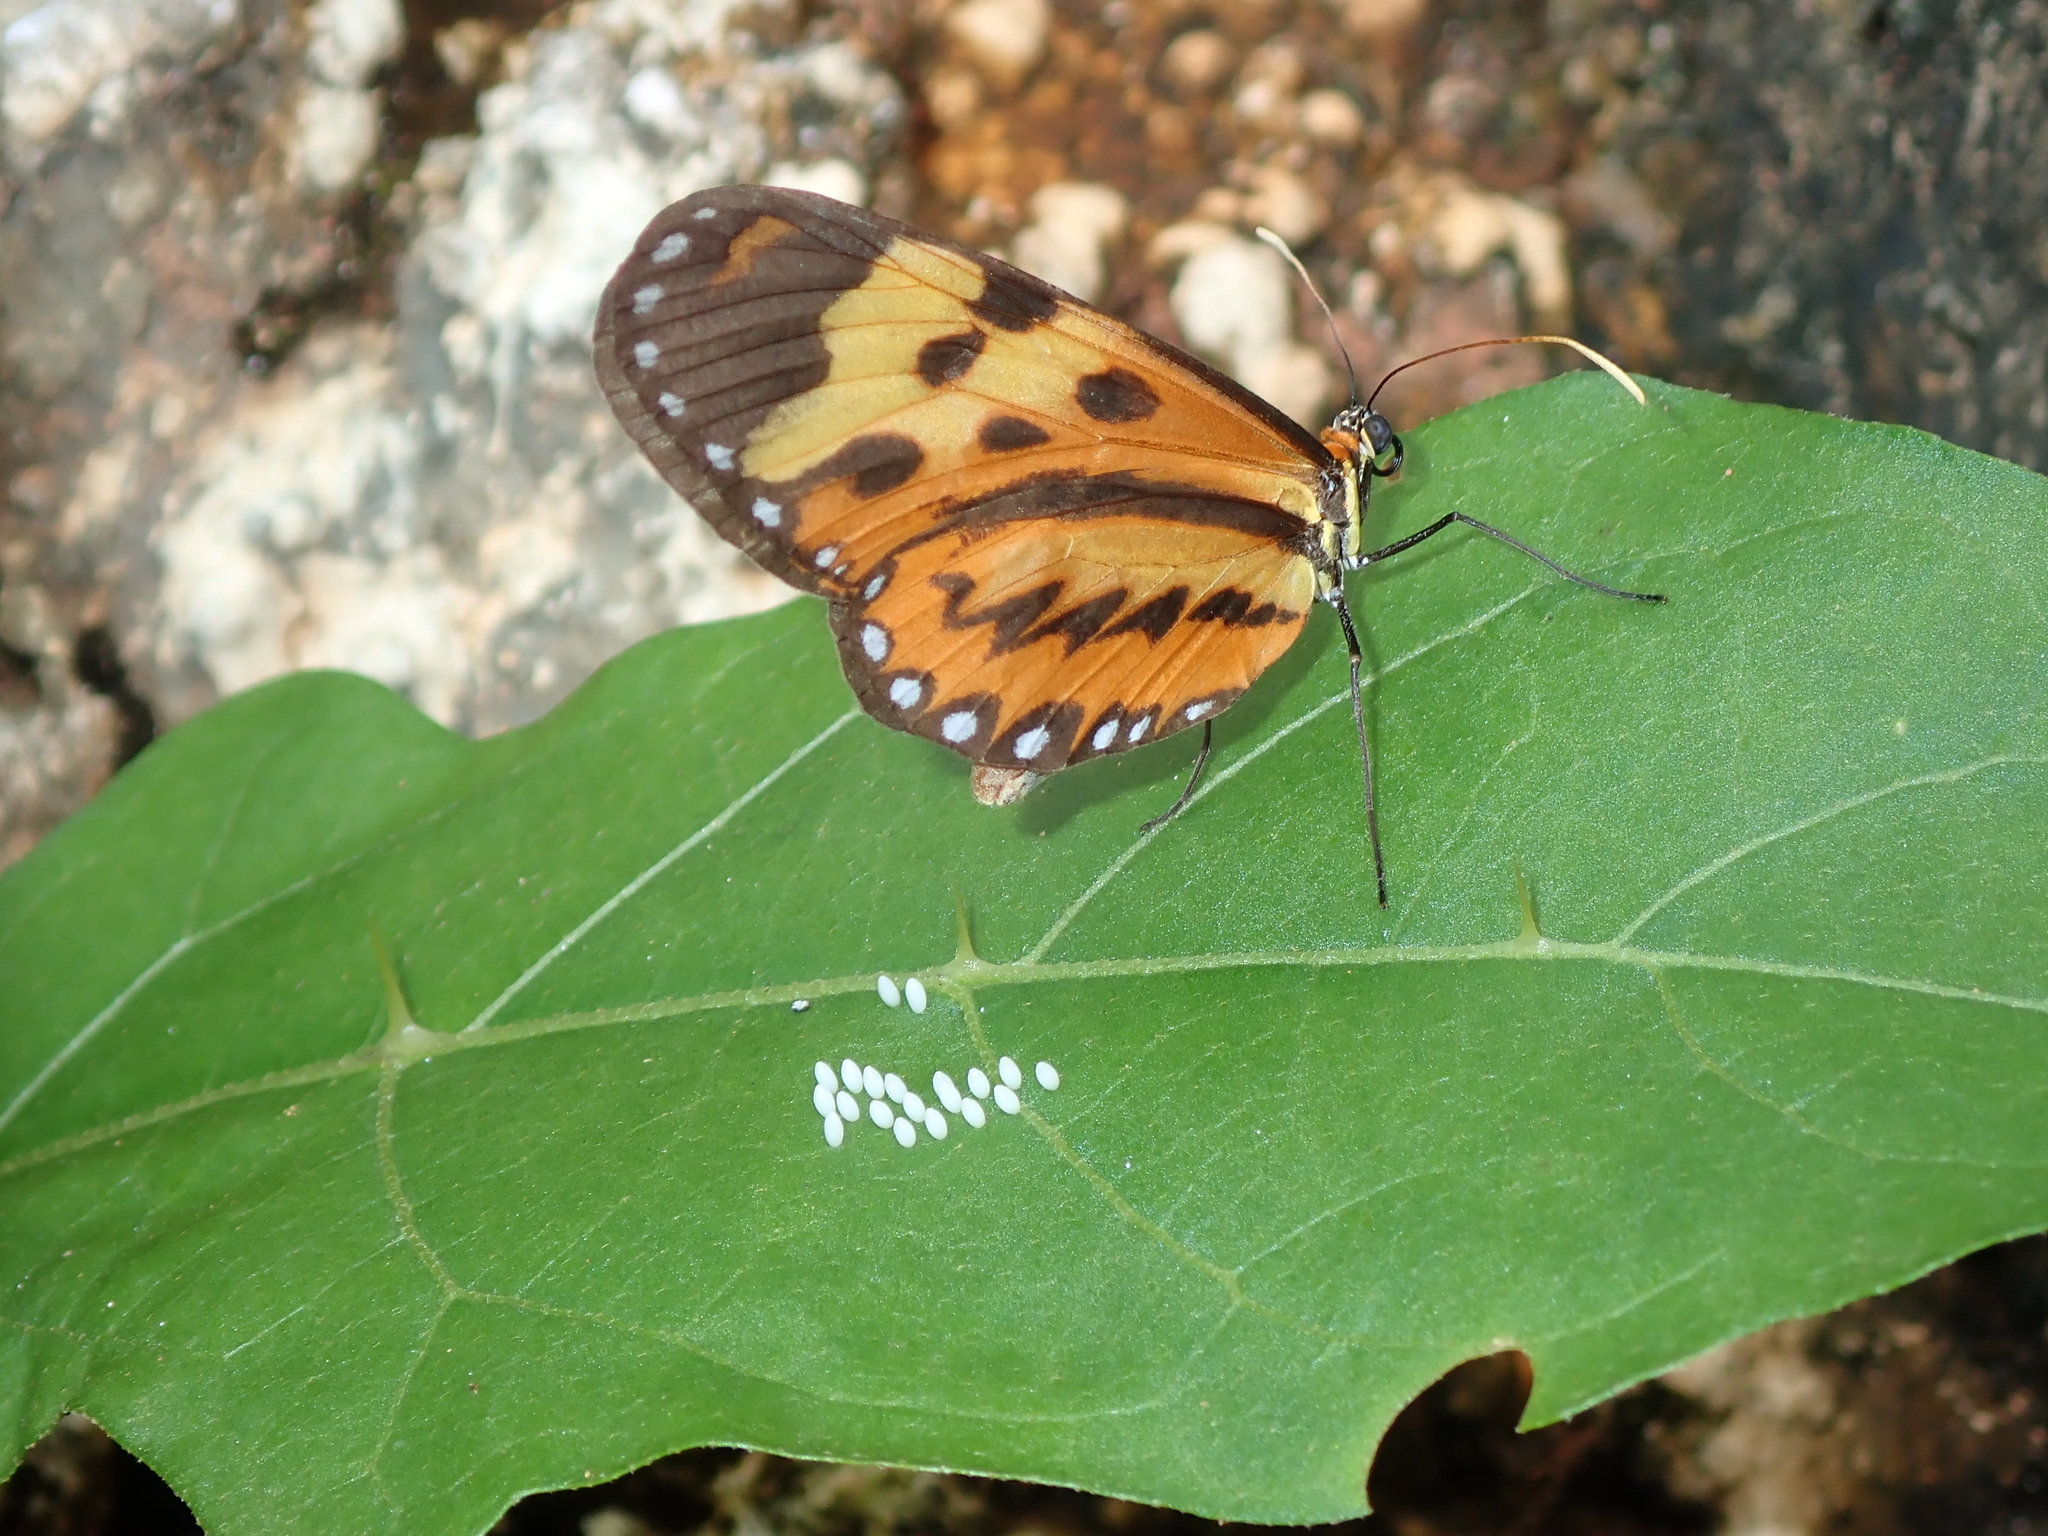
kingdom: Animalia
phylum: Arthropoda
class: Insecta
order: Lepidoptera
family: Nymphalidae
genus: Mechanitis
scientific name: Mechanitis polymnia
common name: Disturbed tigerwing
